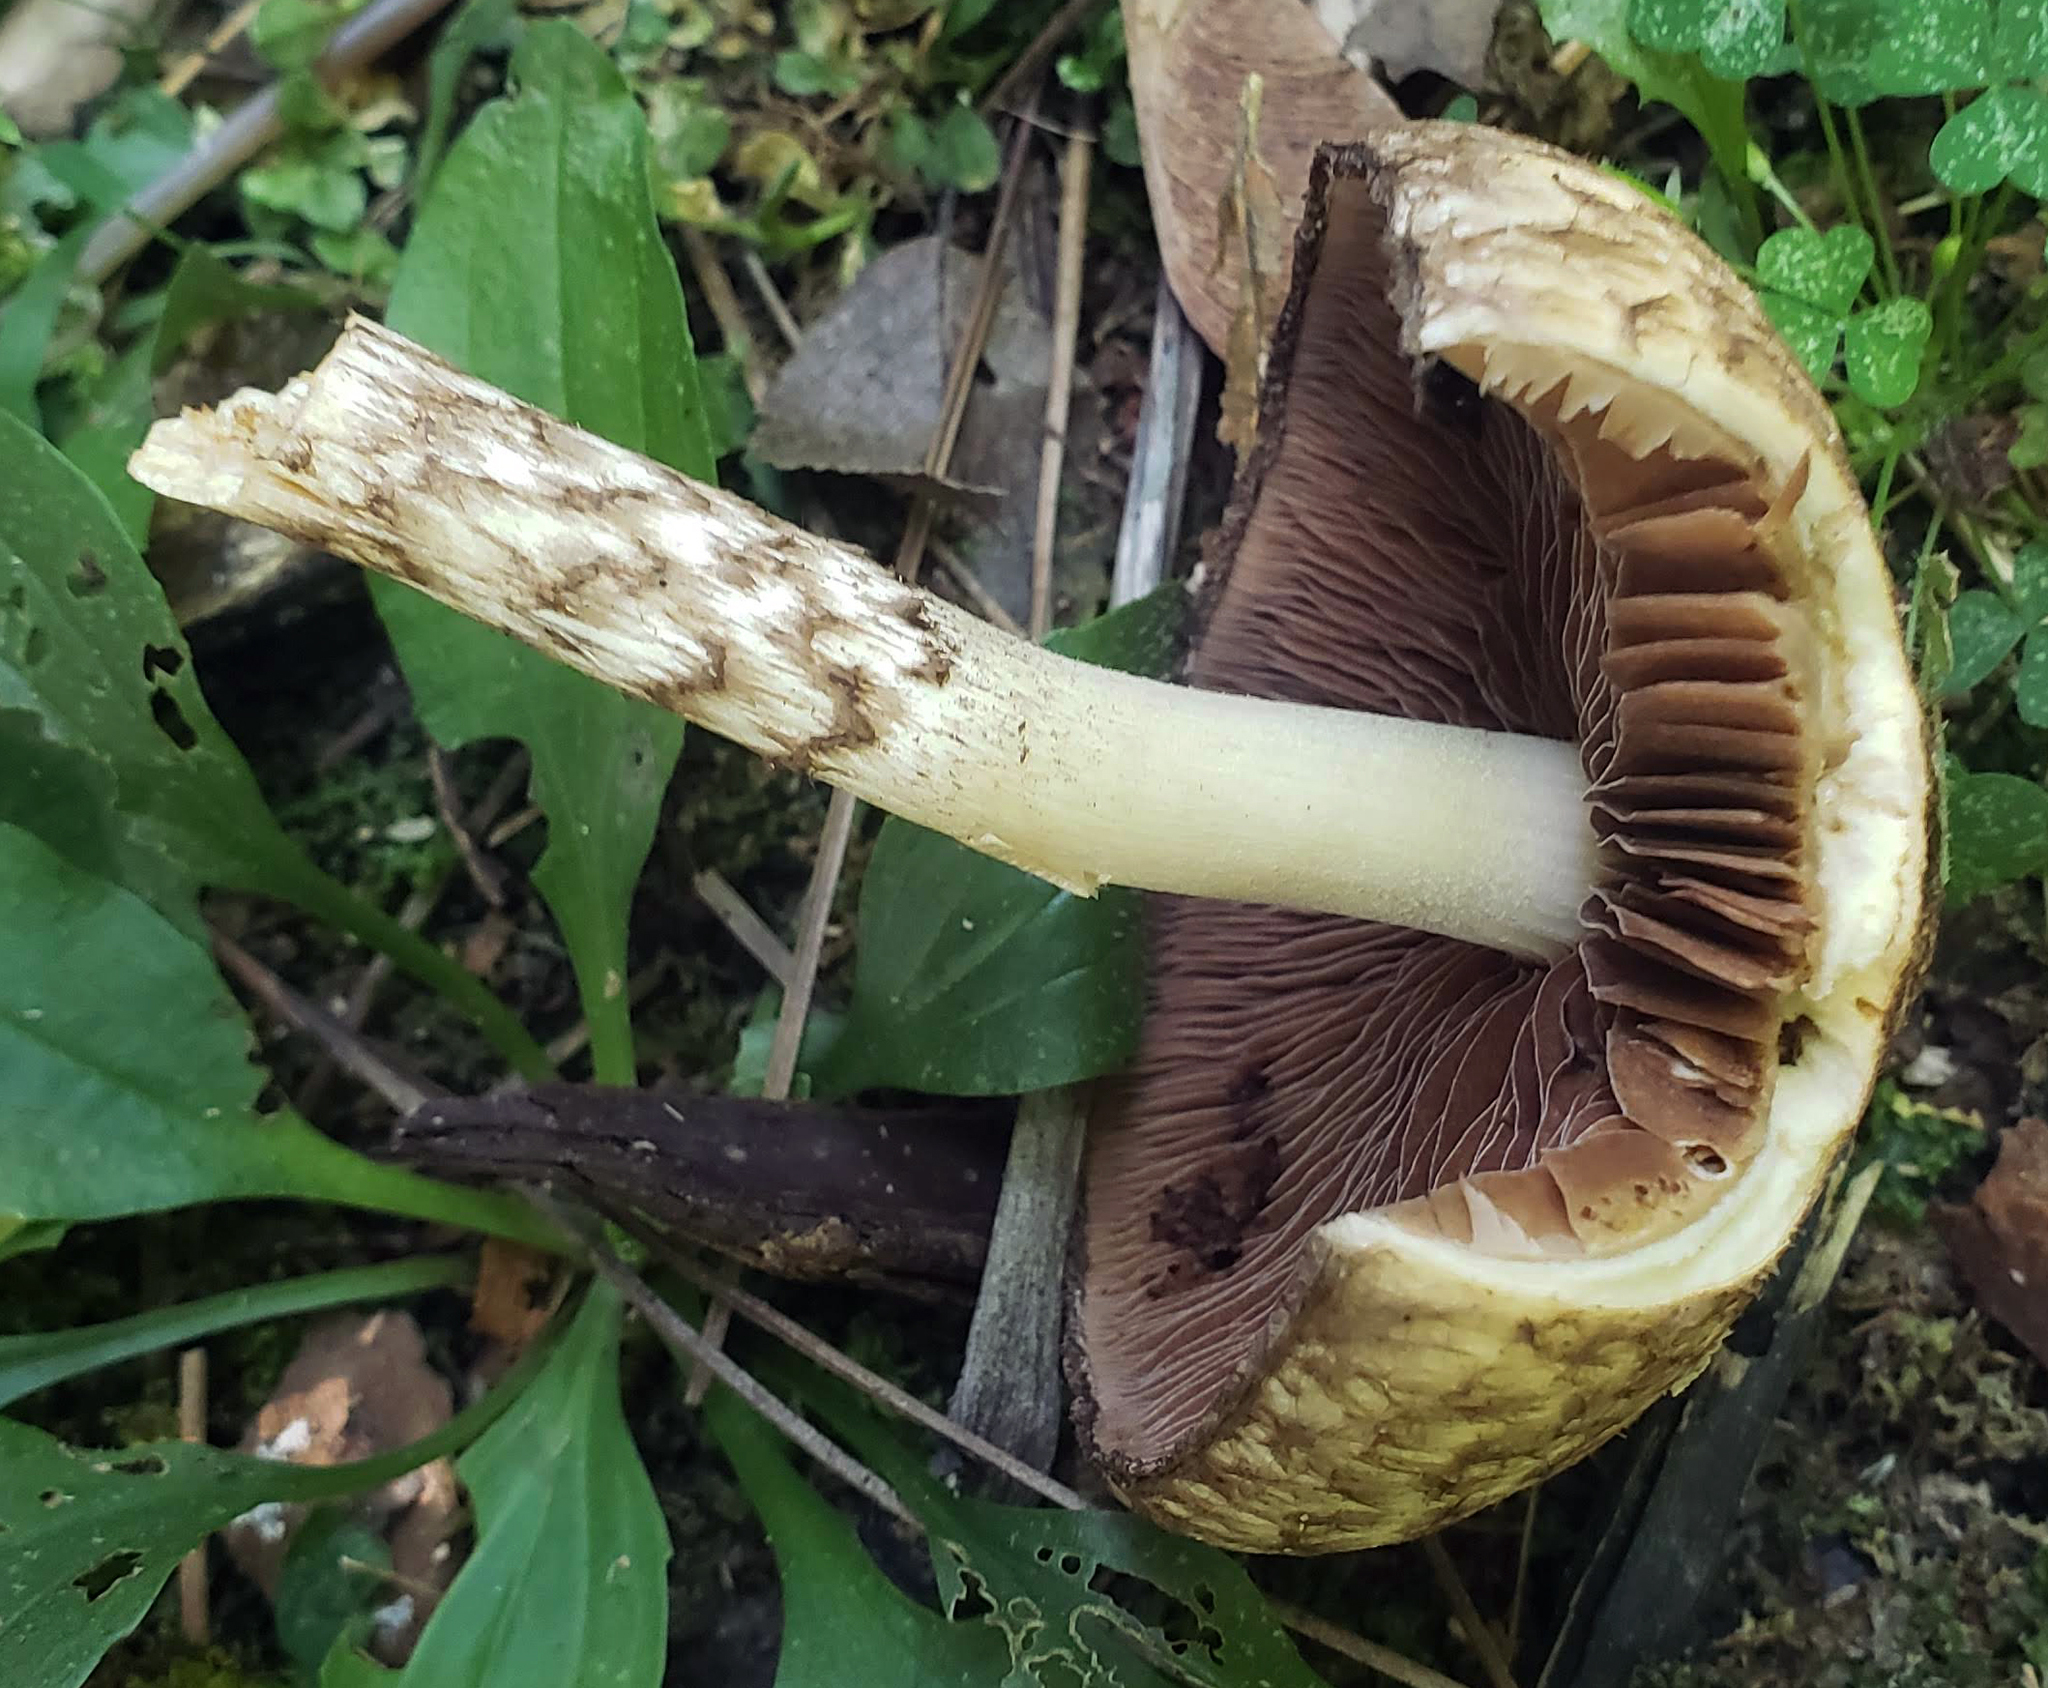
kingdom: Fungi
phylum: Basidiomycota
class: Agaricomycetes
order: Agaricales
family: Psathyrellaceae
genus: Lacrymaria
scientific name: Lacrymaria lacrymabunda
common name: Weeping widow
